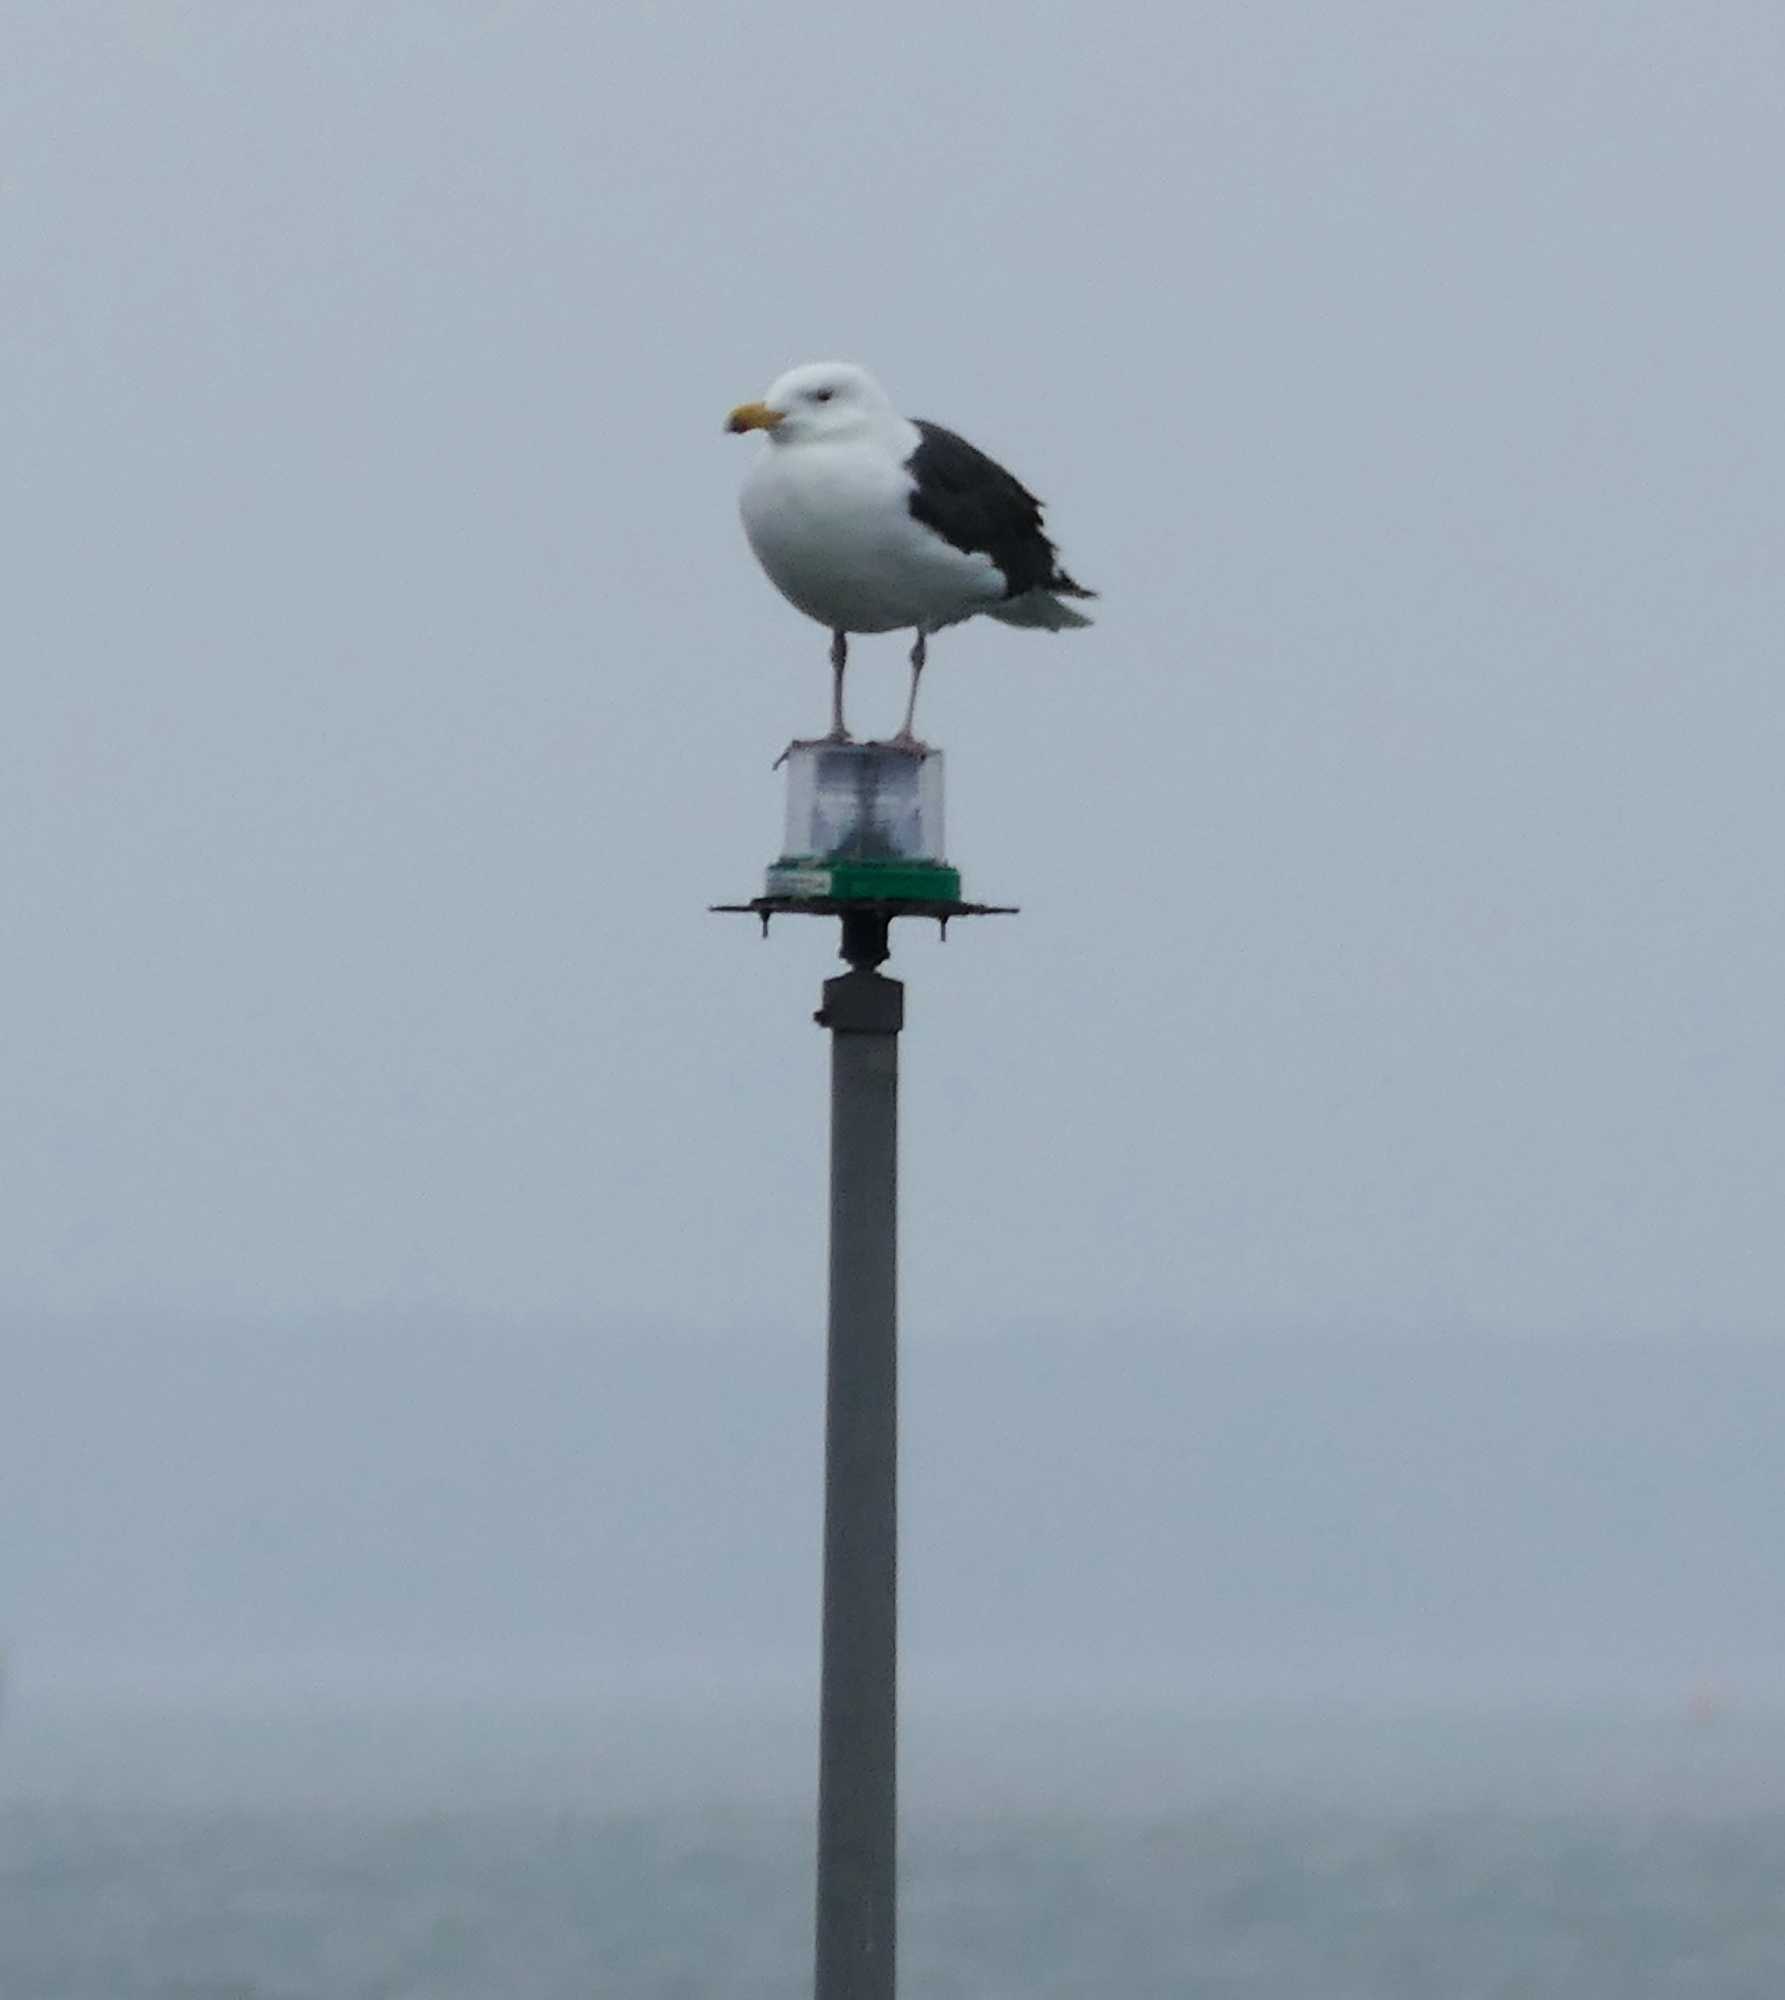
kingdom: Animalia
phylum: Chordata
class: Aves
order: Charadriiformes
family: Laridae
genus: Larus
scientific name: Larus marinus
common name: Great black-backed gull
